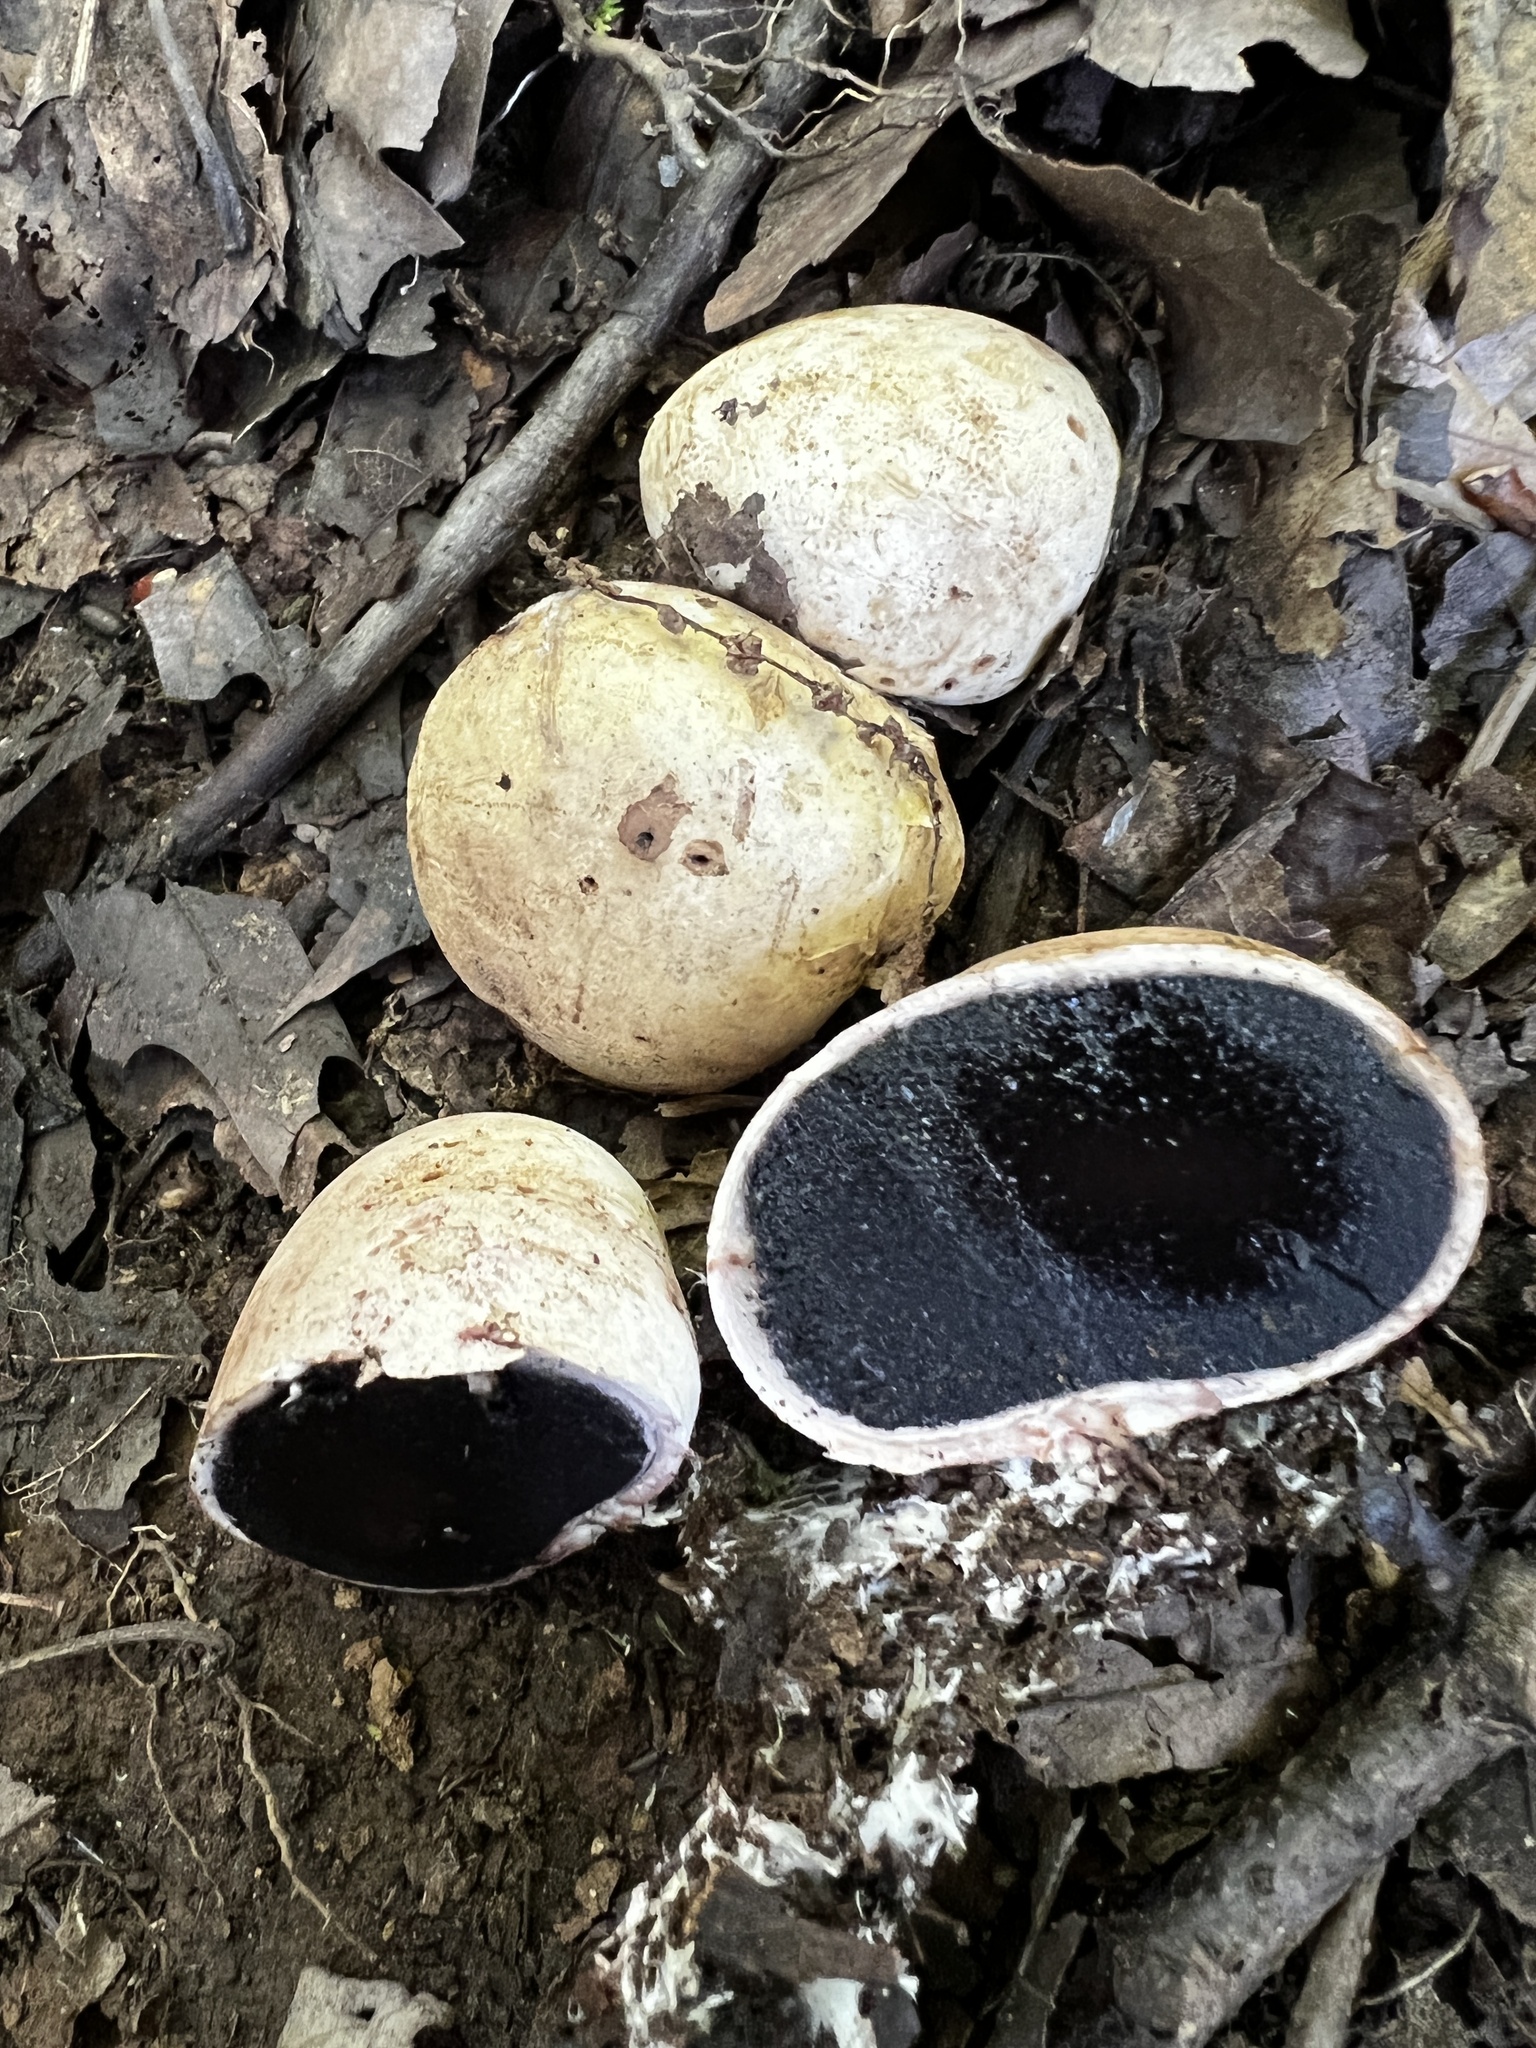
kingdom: Fungi
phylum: Basidiomycota
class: Agaricomycetes
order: Boletales
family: Sclerodermataceae
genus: Scleroderma
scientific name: Scleroderma cepa
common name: Onion earthball
